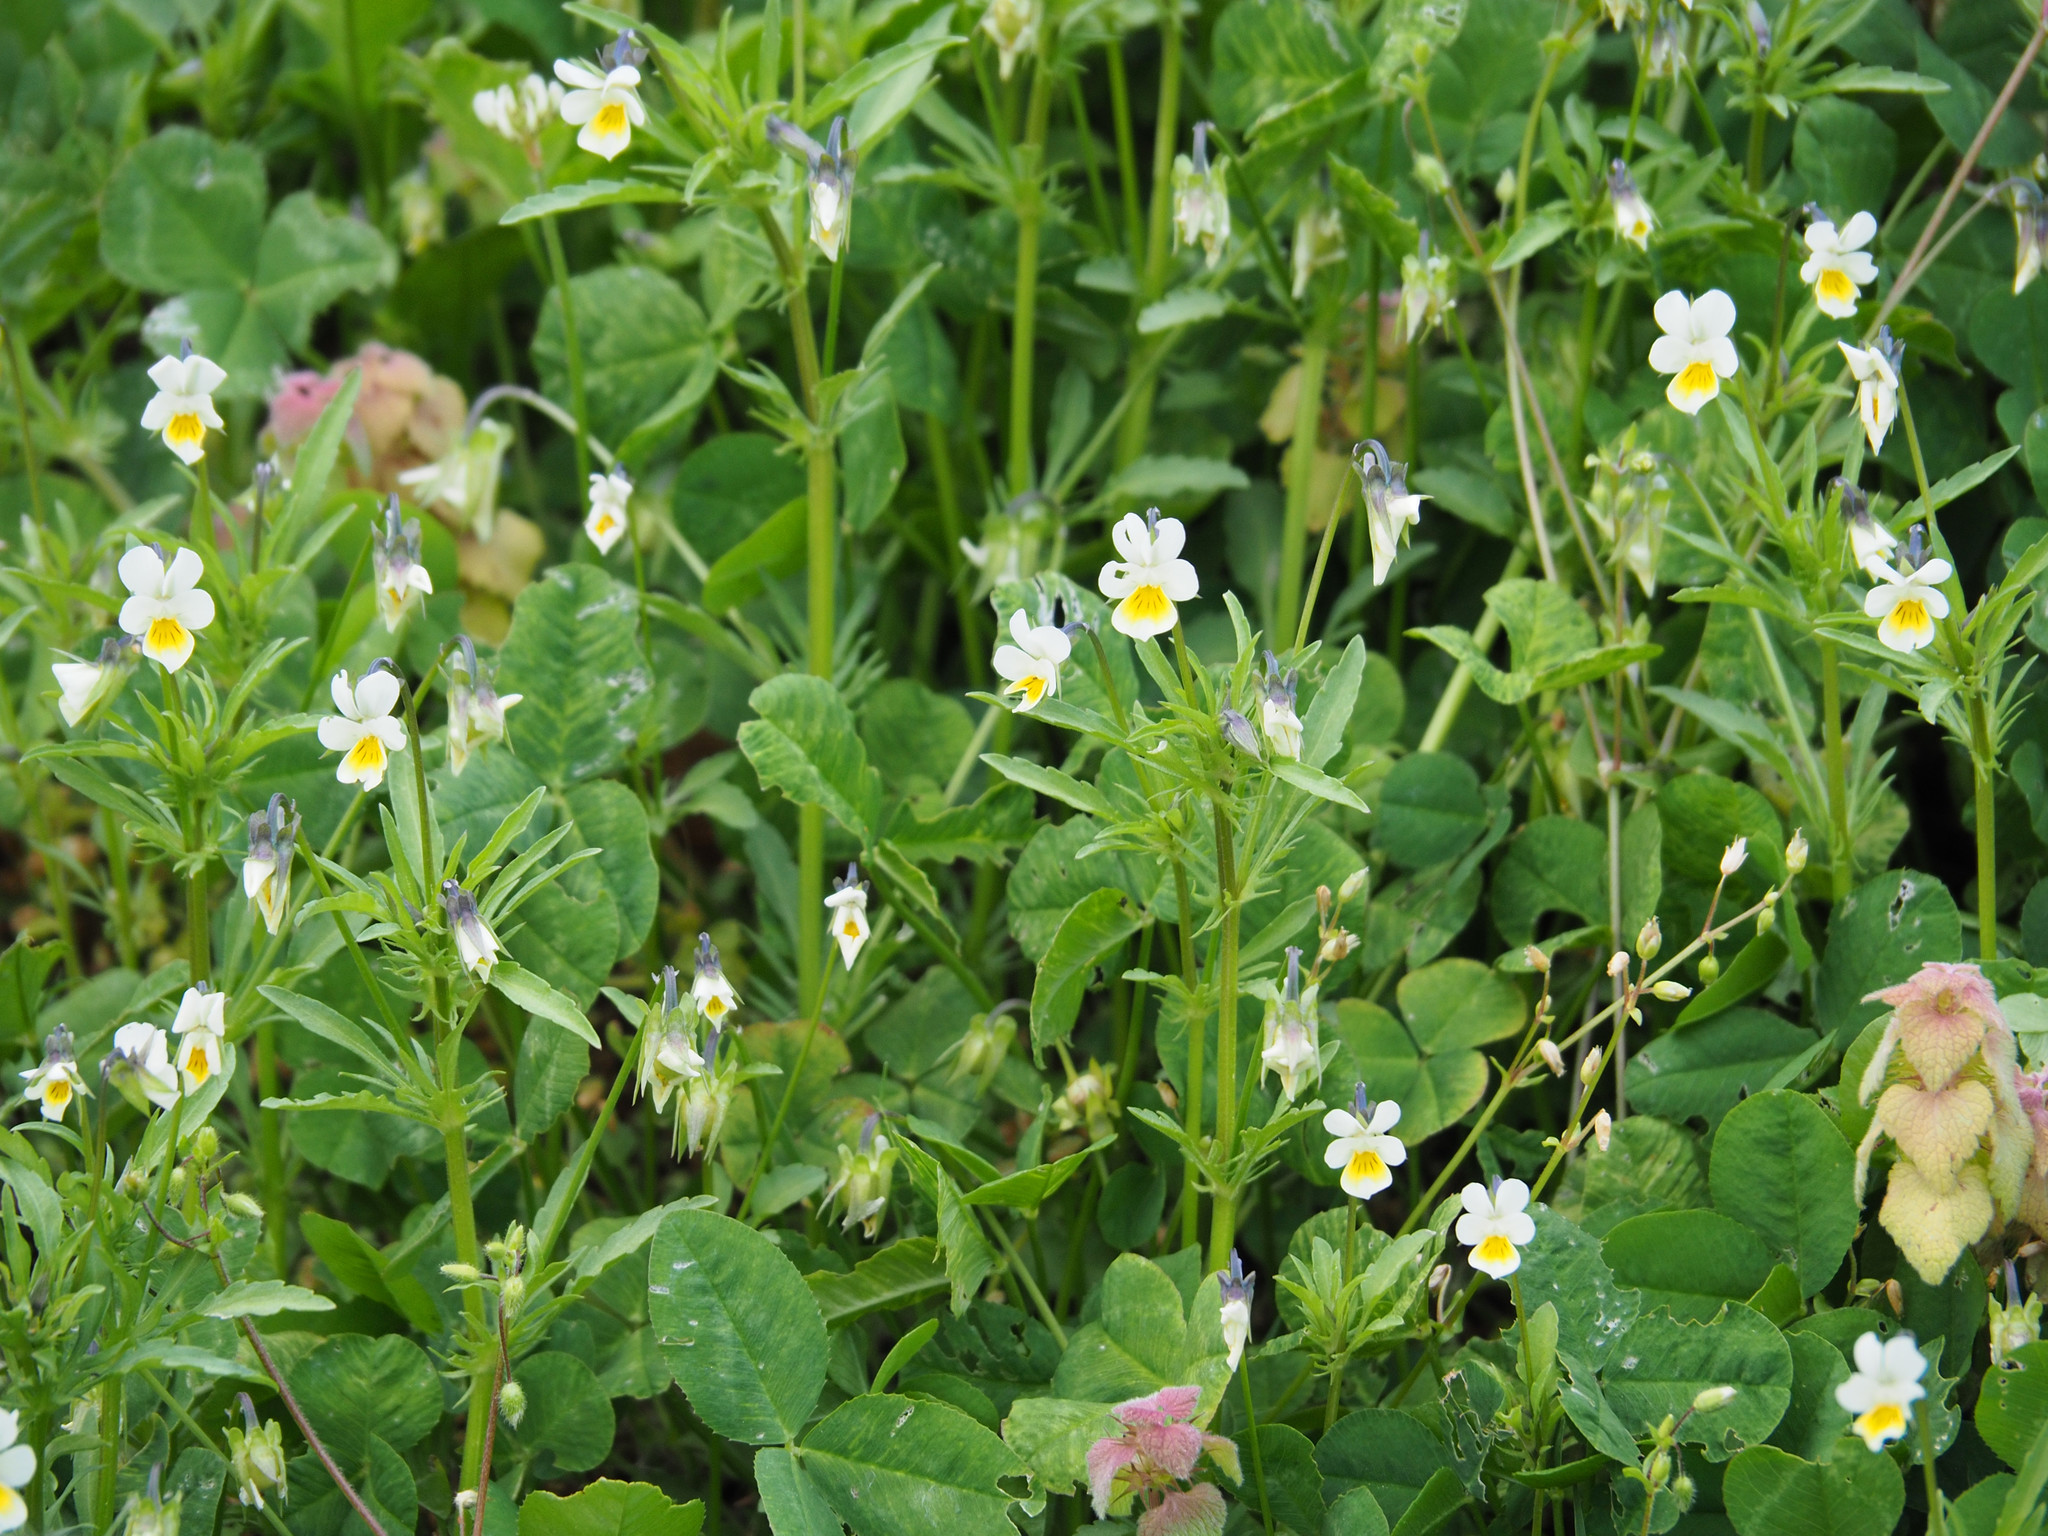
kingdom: Plantae
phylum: Tracheophyta
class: Magnoliopsida
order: Malpighiales
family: Violaceae
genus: Viola
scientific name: Viola rafinesquei
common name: American field pansy
